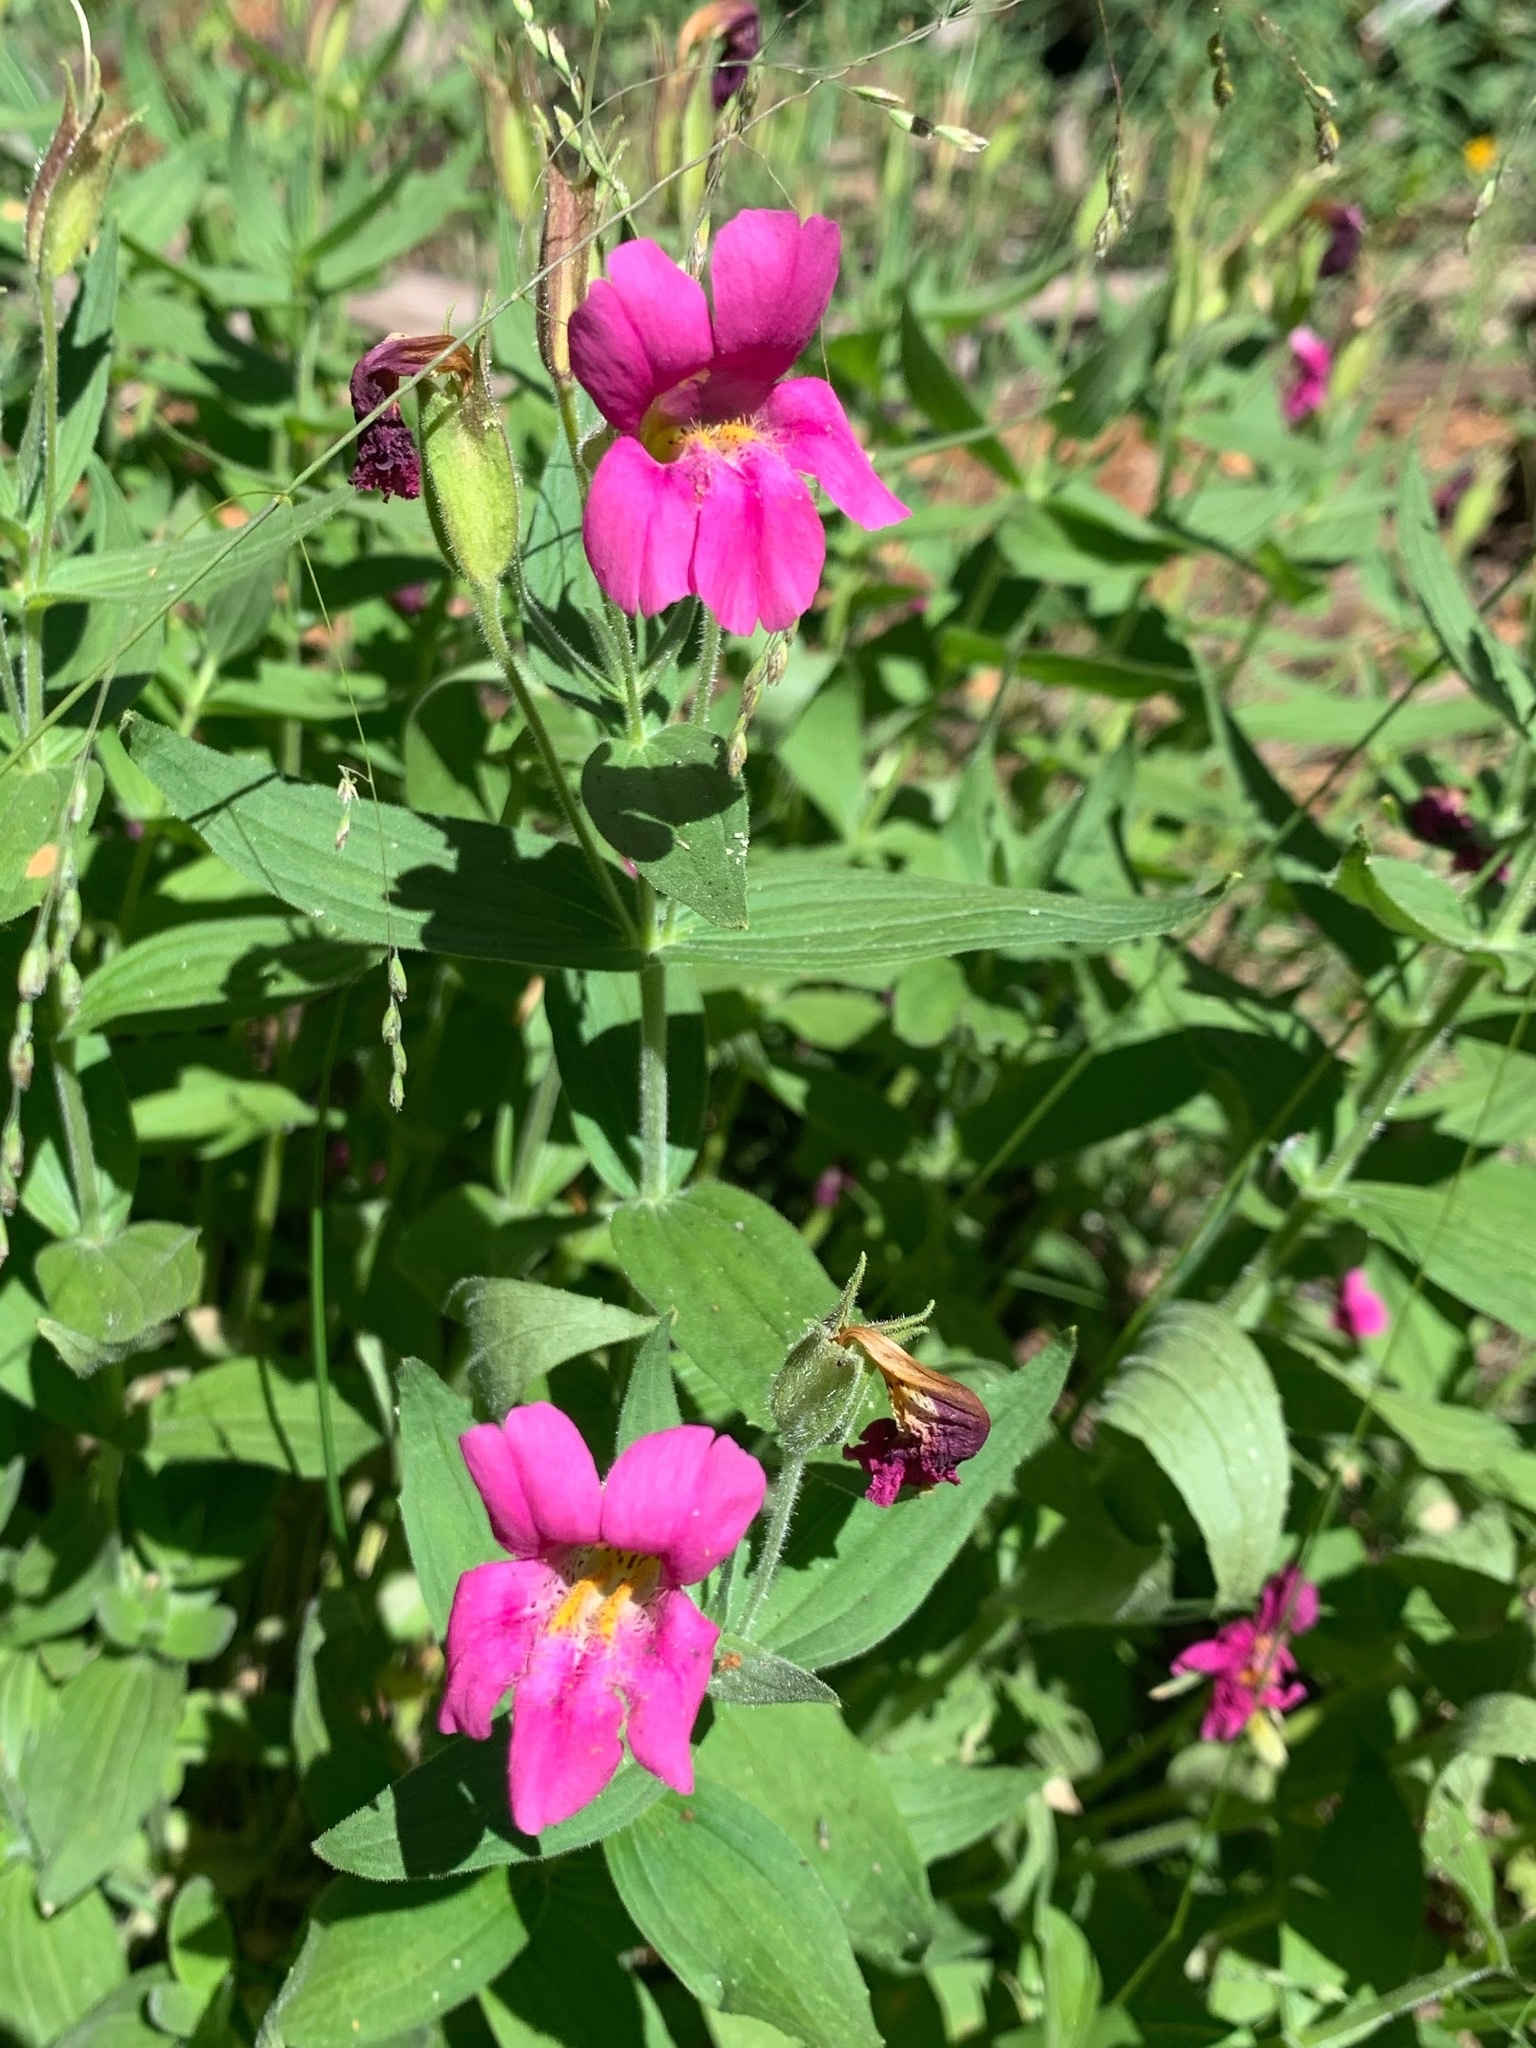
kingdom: Plantae
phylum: Tracheophyta
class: Magnoliopsida
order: Lamiales
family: Phrymaceae
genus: Erythranthe
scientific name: Erythranthe lewisii
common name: Lewis's monkey-flower
